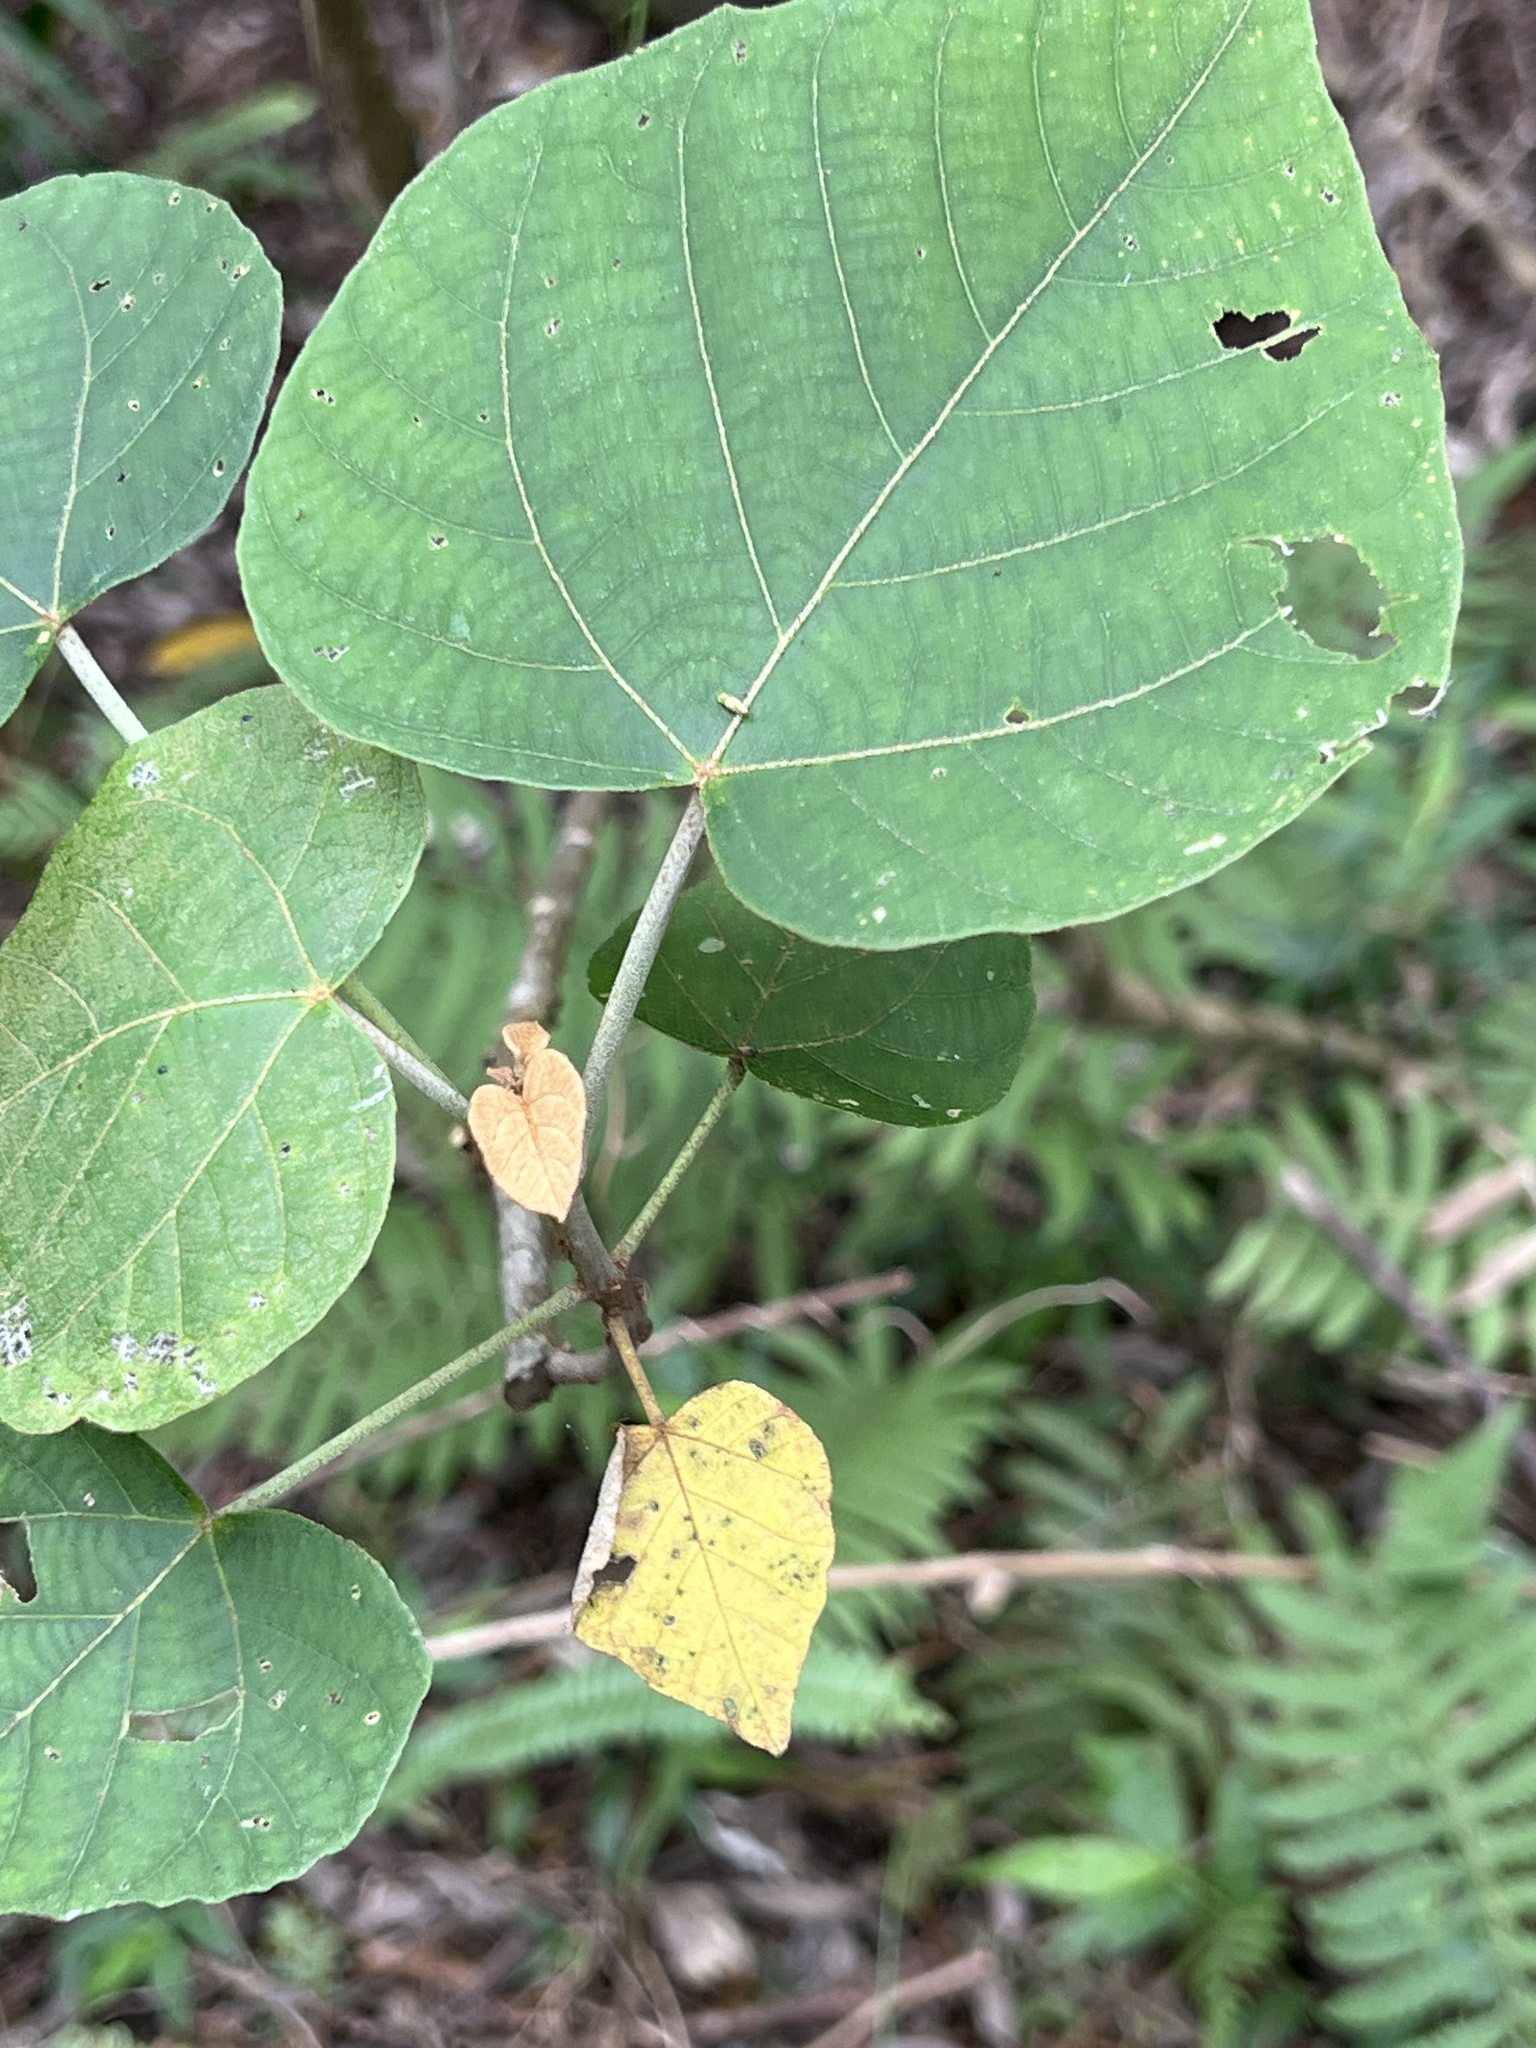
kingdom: Plantae
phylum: Tracheophyta
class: Magnoliopsida
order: Malpighiales
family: Euphorbiaceae
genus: Mallotus
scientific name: Mallotus japonicus
